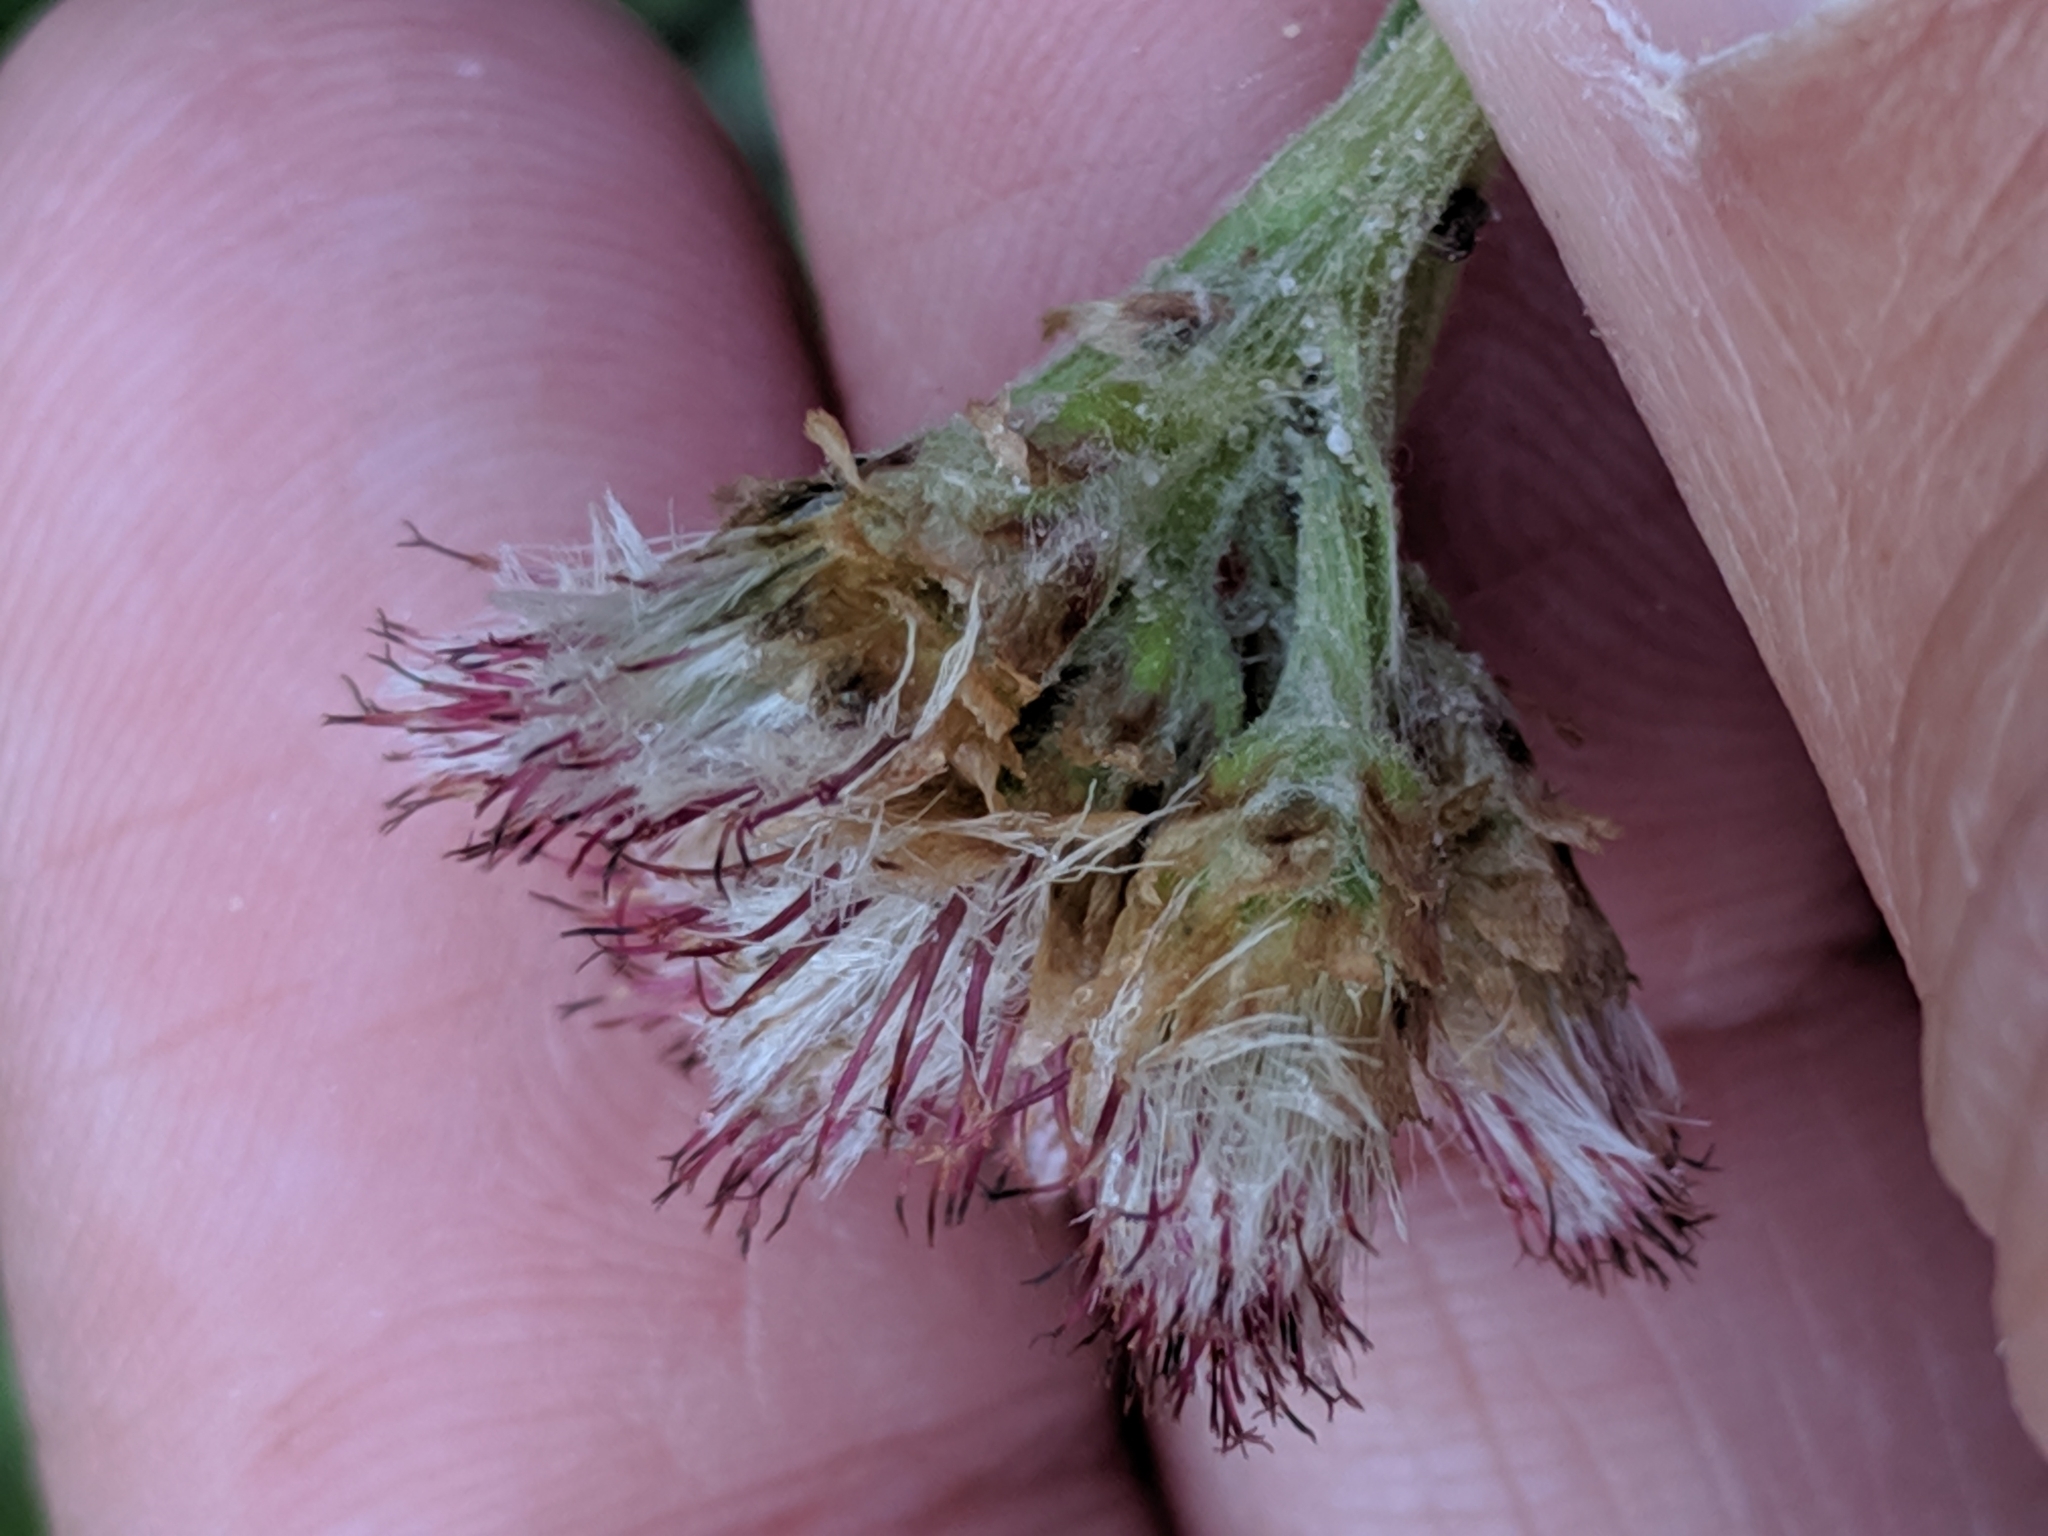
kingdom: Plantae
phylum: Tracheophyta
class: Magnoliopsida
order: Asterales
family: Asteraceae
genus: Antennaria
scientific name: Antennaria howellii
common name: Howell's pussytoes
